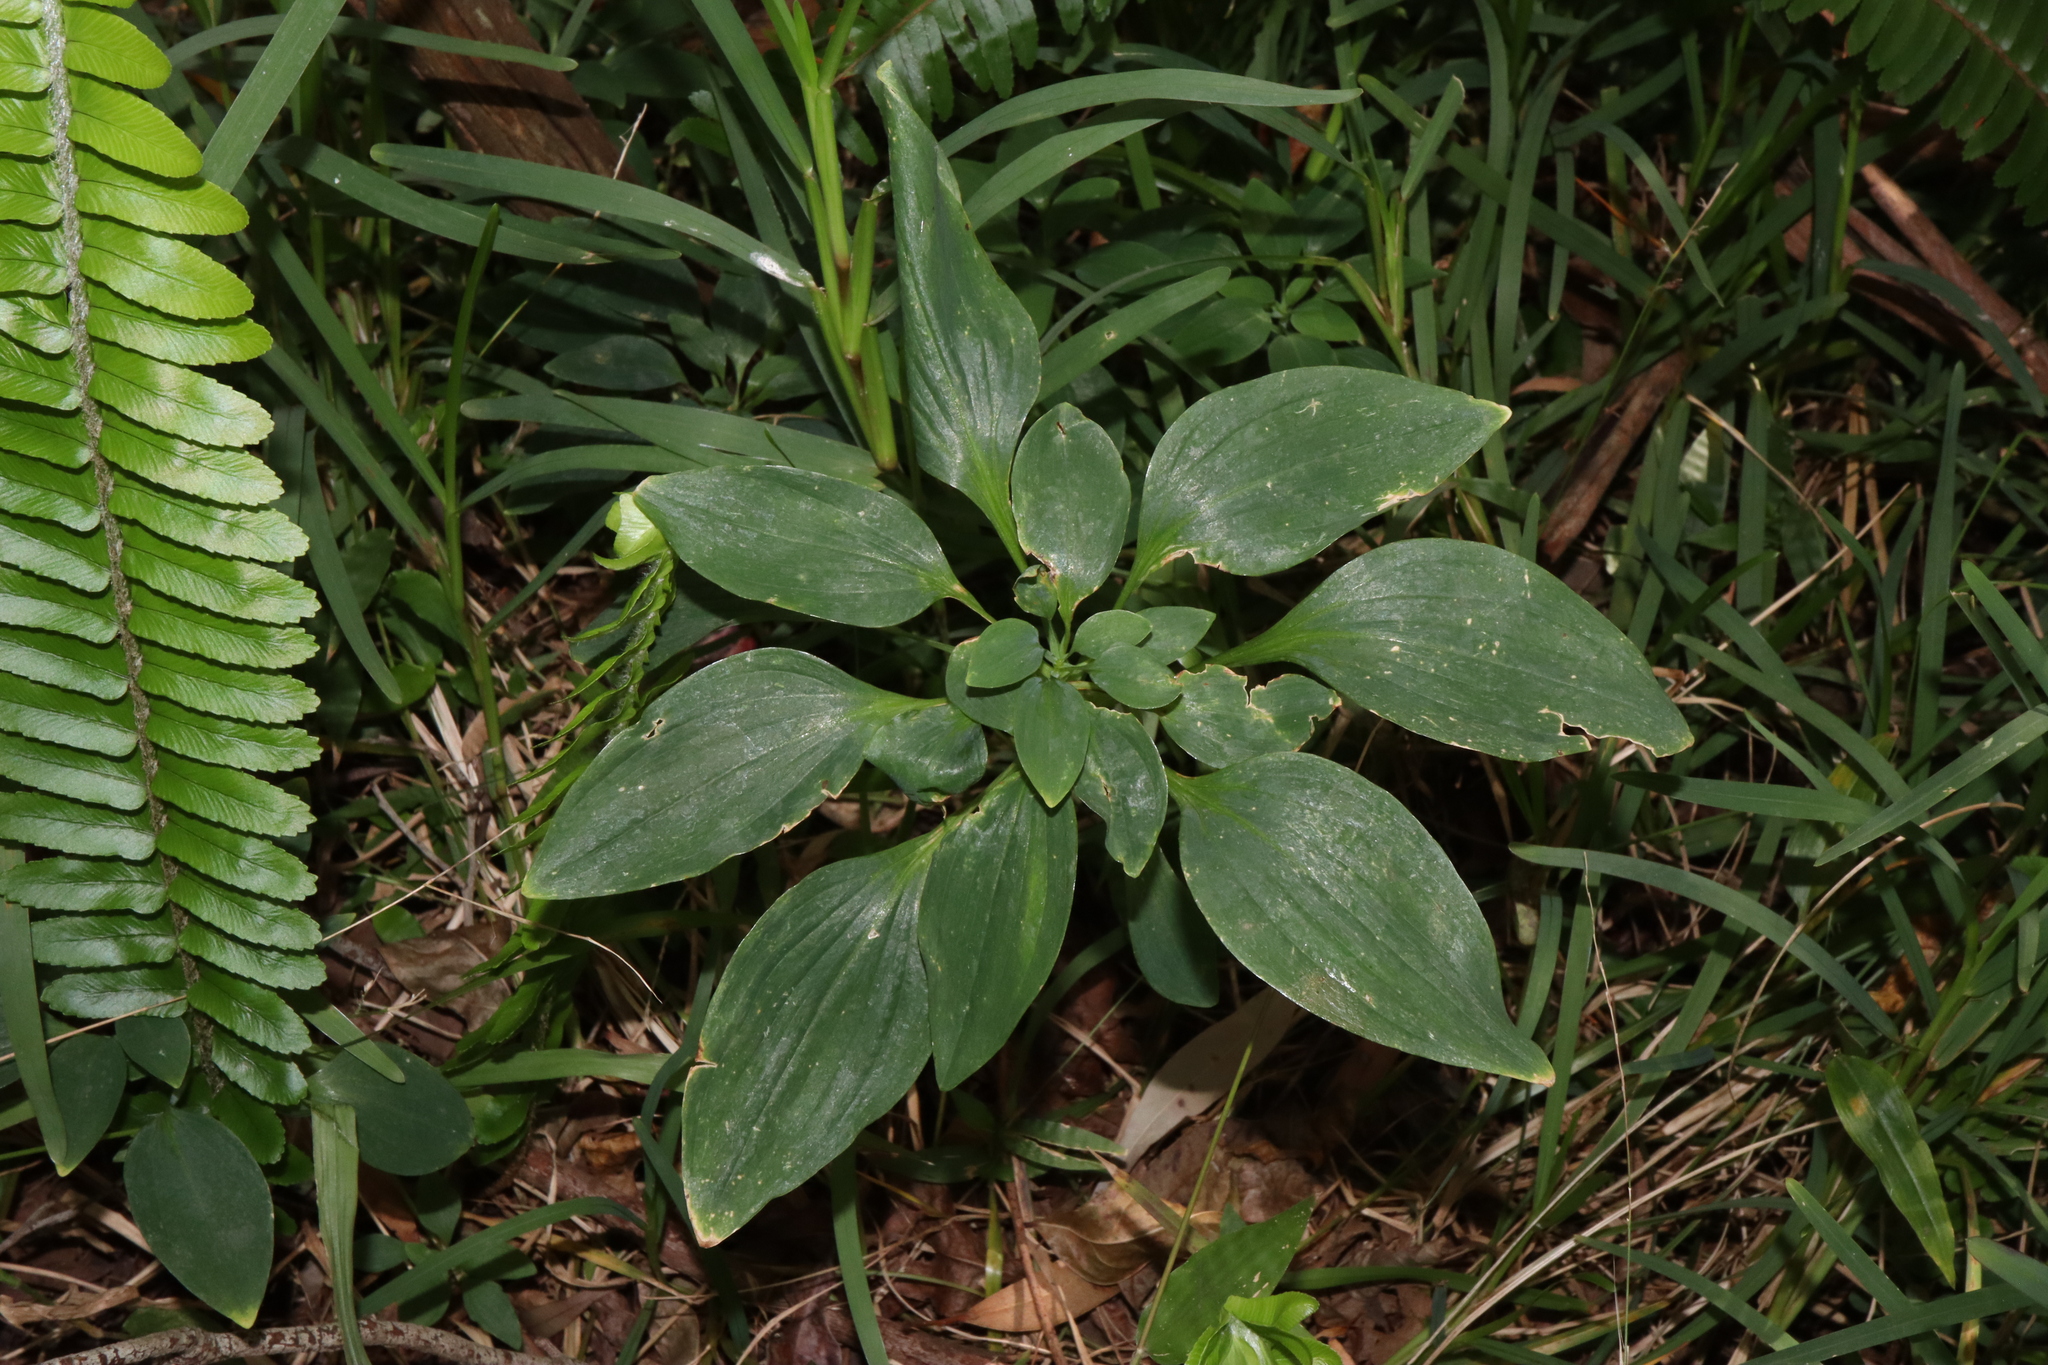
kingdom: Plantae
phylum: Tracheophyta
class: Liliopsida
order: Liliales
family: Alstroemeriaceae
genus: Alstroemeria
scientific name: Alstroemeria psittacina
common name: Peruvian-lily
